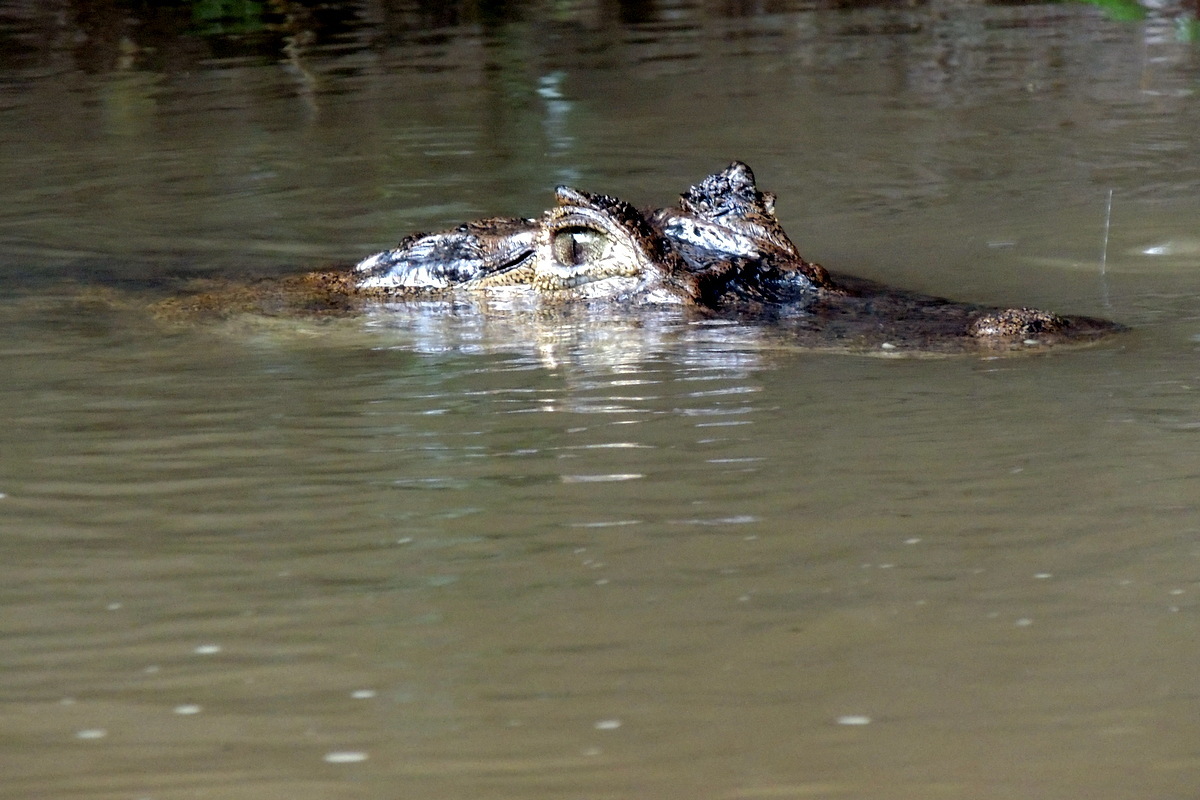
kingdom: Animalia
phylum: Chordata
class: Crocodylia
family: Alligatoridae
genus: Caiman
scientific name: Caiman crocodilus
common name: Common caiman
